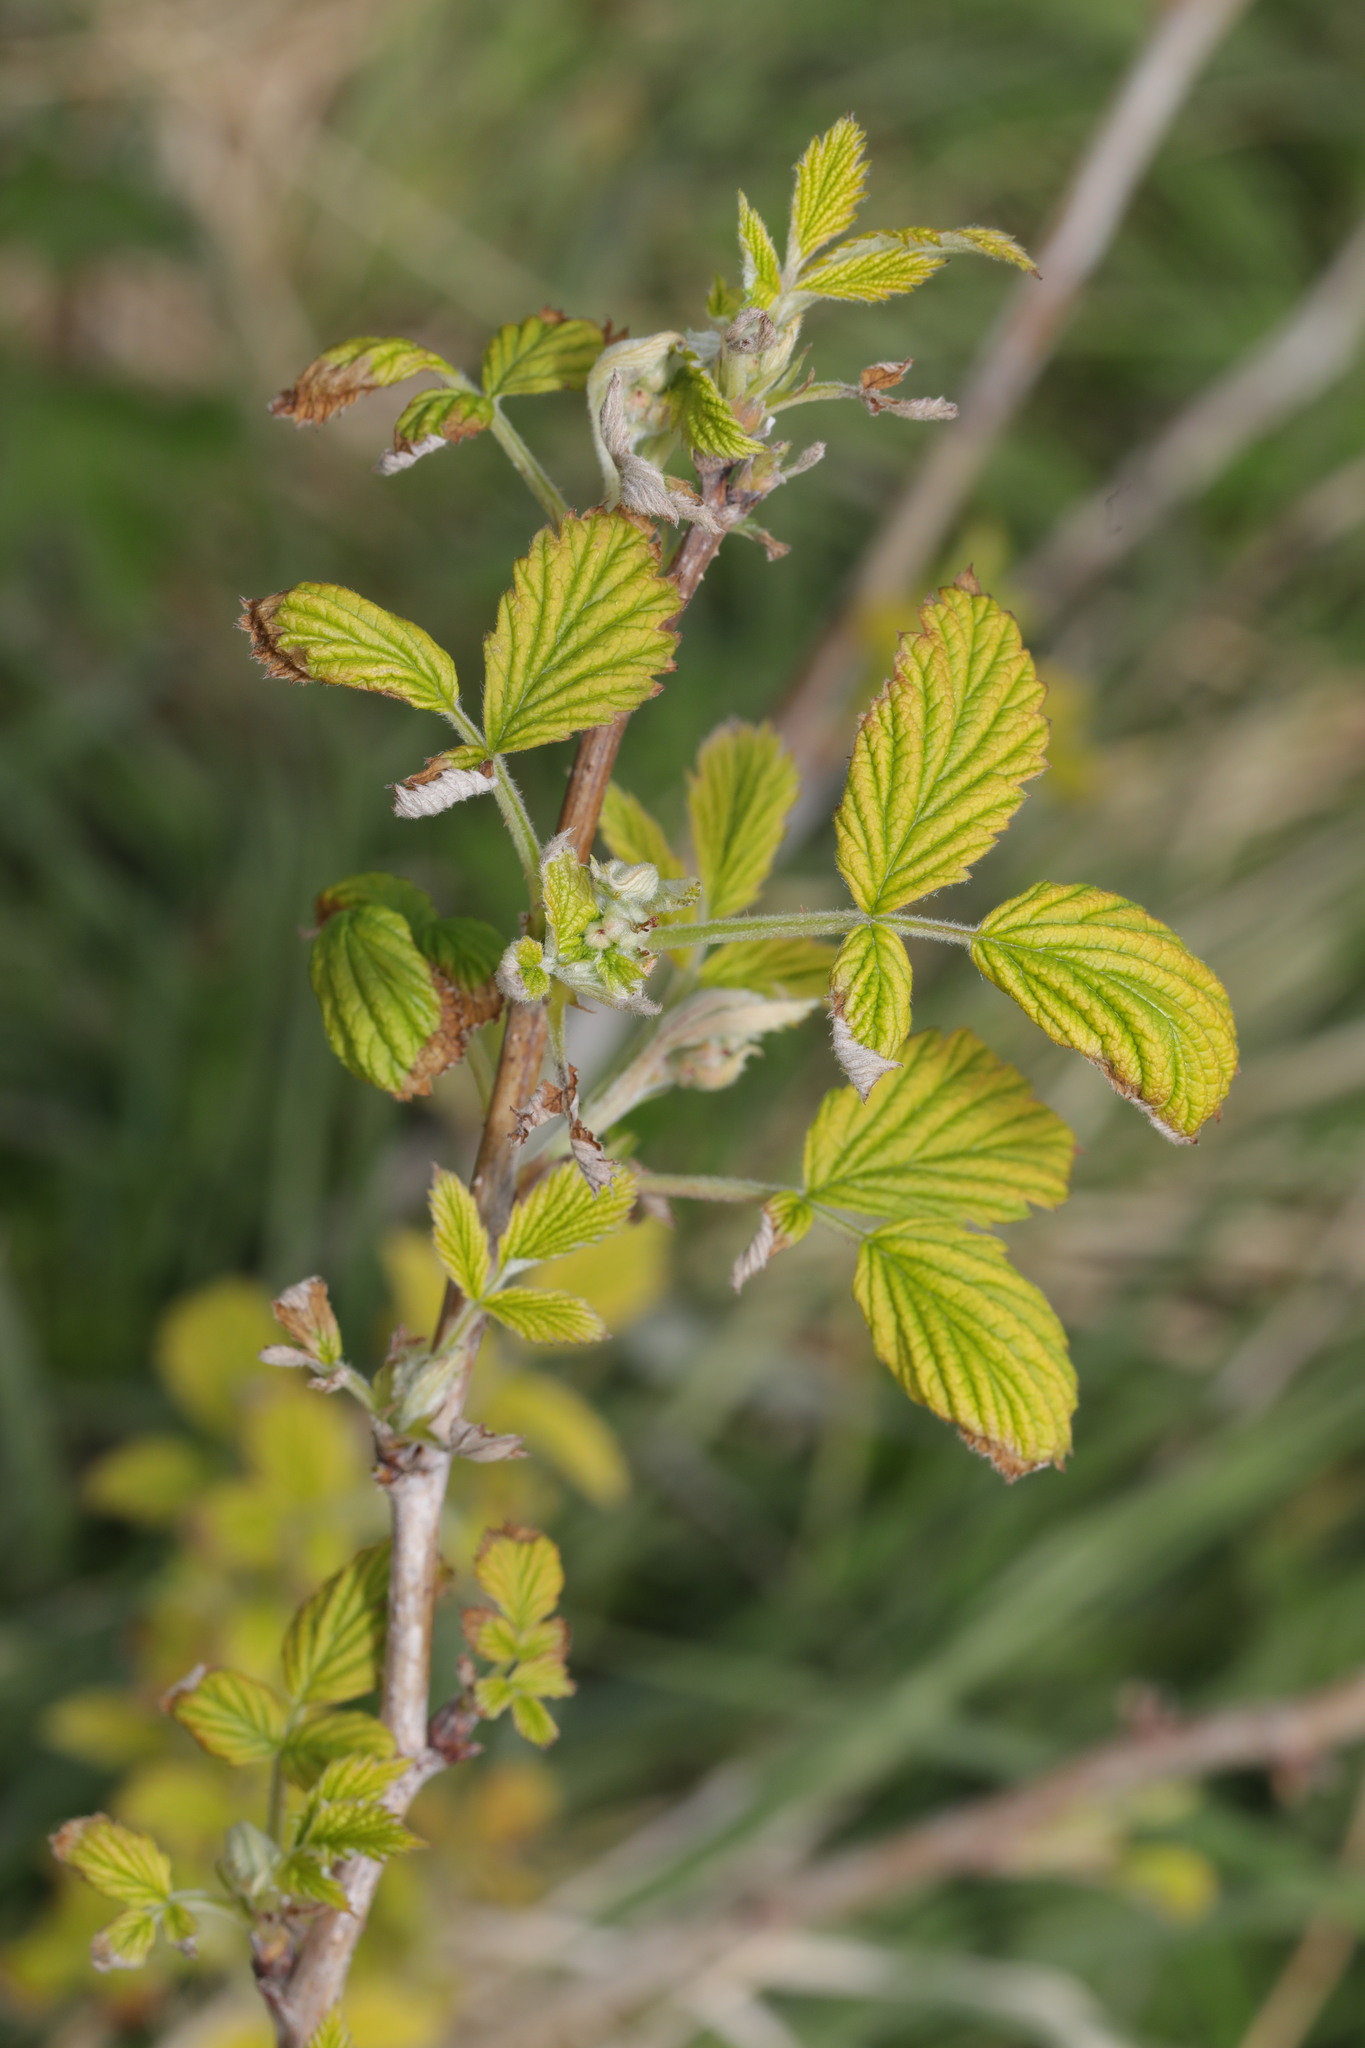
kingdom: Plantae
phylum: Tracheophyta
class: Magnoliopsida
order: Rosales
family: Rosaceae
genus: Rubus
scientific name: Rubus idaeus
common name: Raspberry
